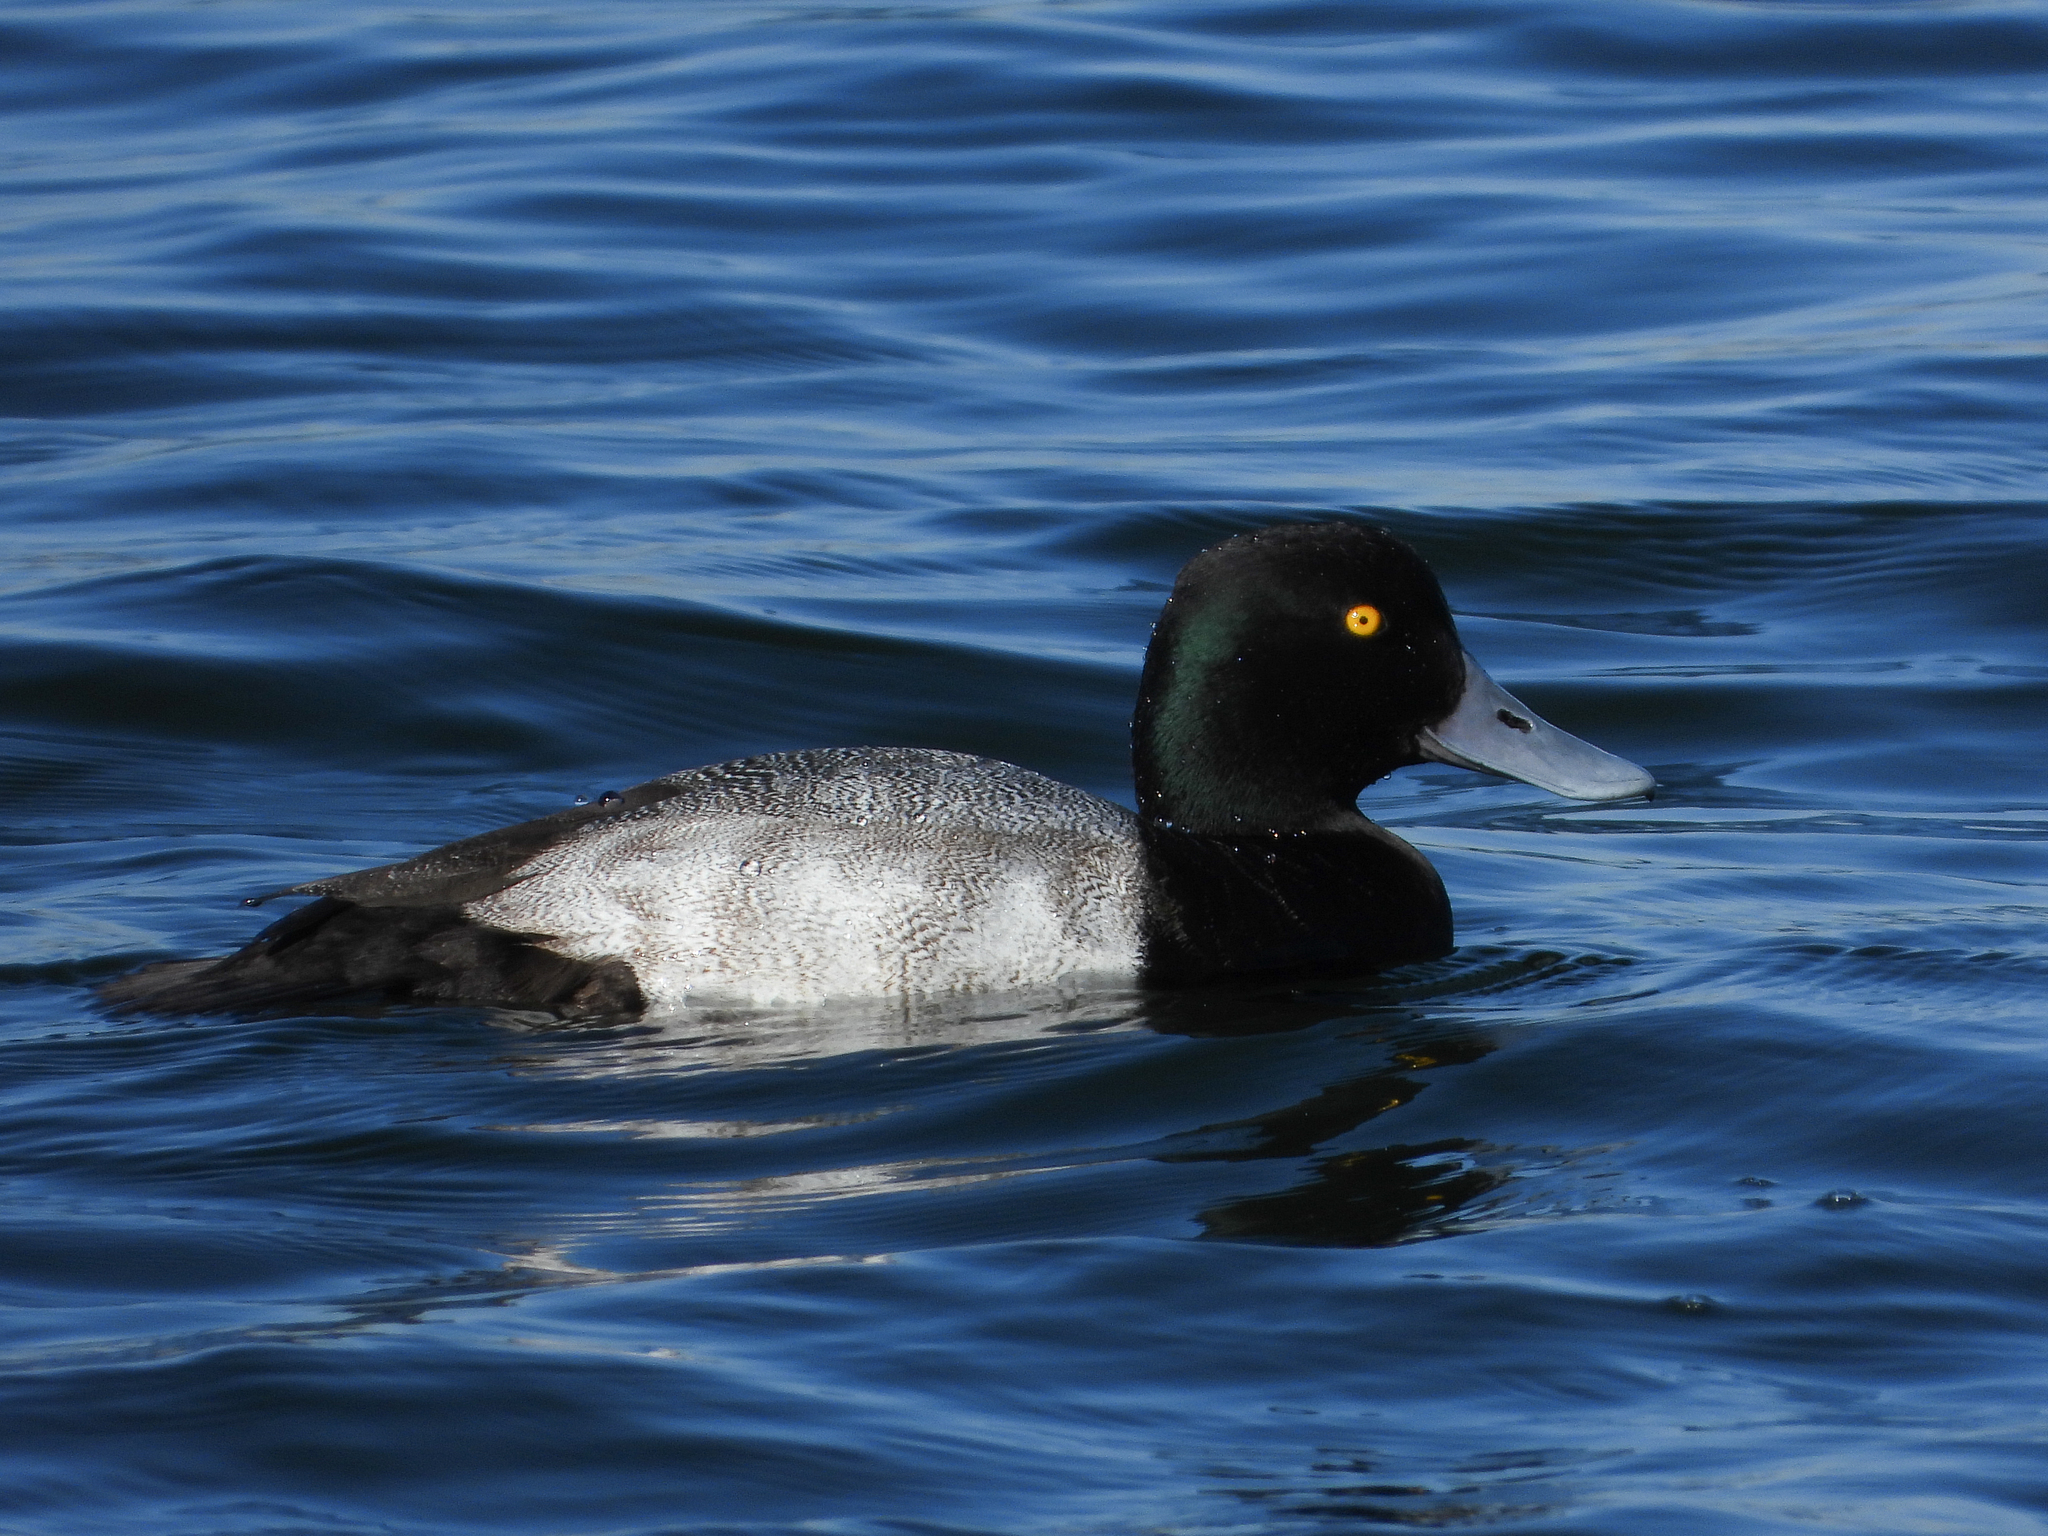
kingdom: Animalia
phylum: Chordata
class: Aves
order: Anseriformes
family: Anatidae
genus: Aythya
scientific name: Aythya marila
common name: Greater scaup
